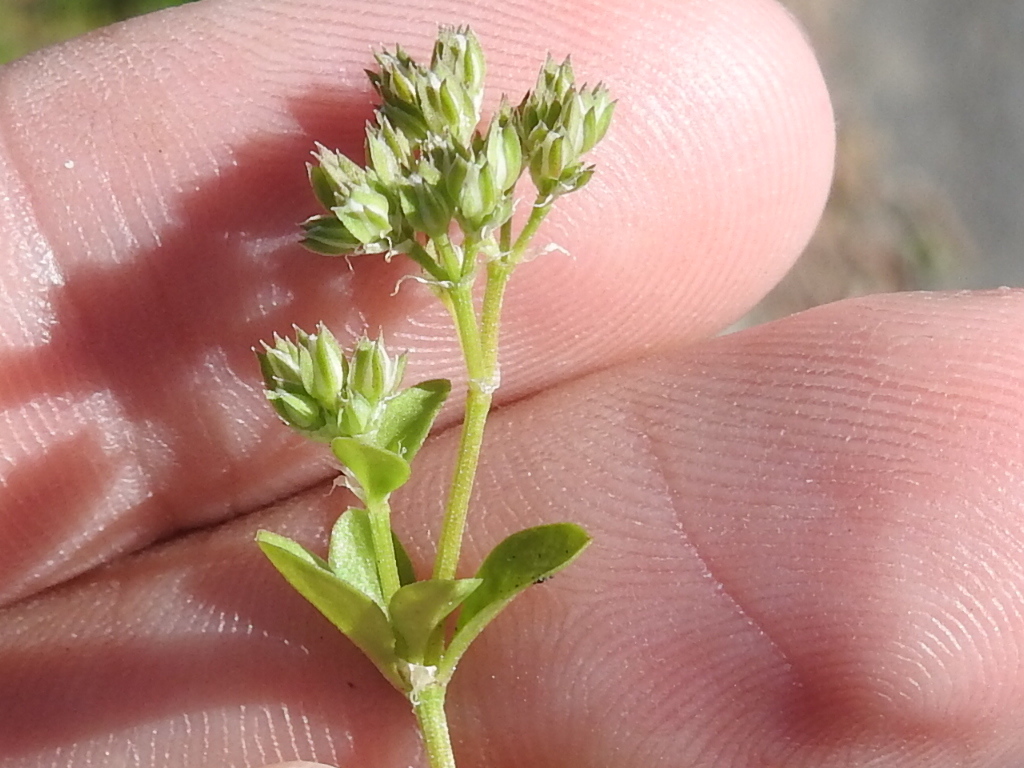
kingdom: Plantae
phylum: Tracheophyta
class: Magnoliopsida
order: Caryophyllales
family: Caryophyllaceae
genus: Polycarpon
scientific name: Polycarpon tetraphyllum
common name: Four-leaved all-seed
